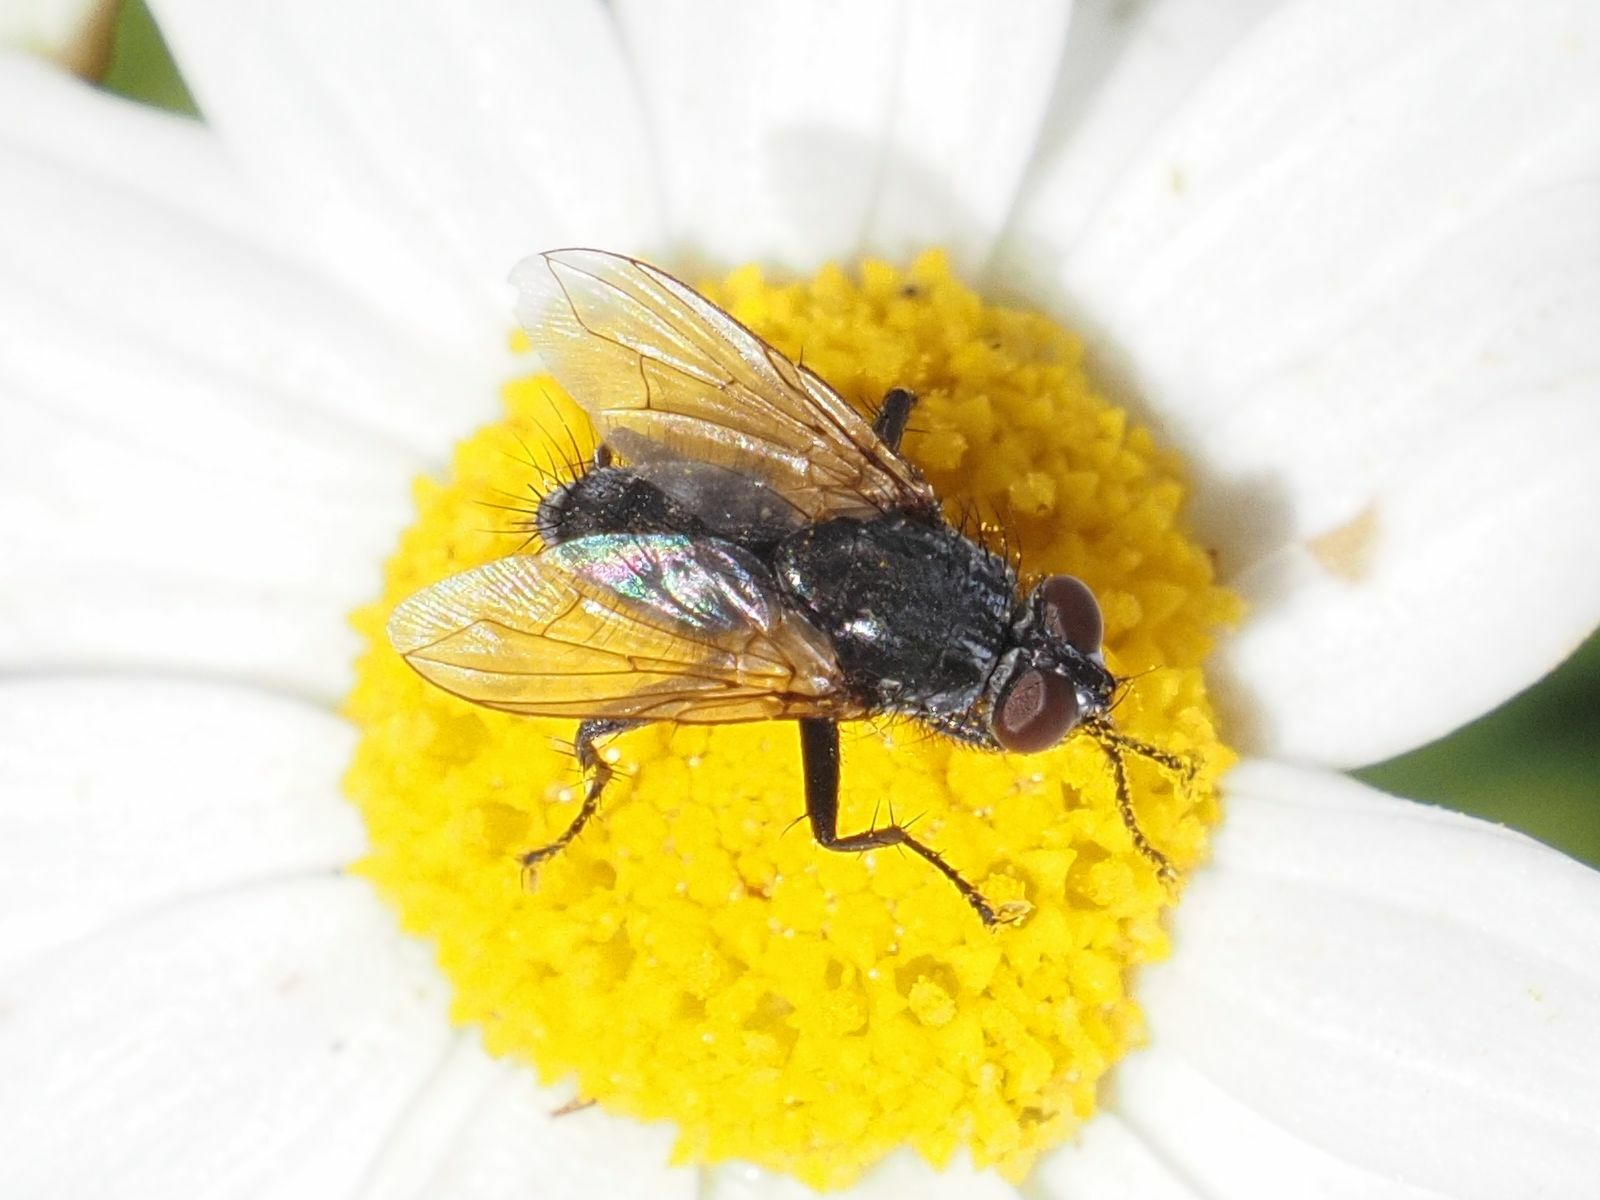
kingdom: Animalia
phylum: Arthropoda
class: Insecta
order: Diptera
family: Calliphoridae
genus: Phyto
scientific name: Phyto hertingi
